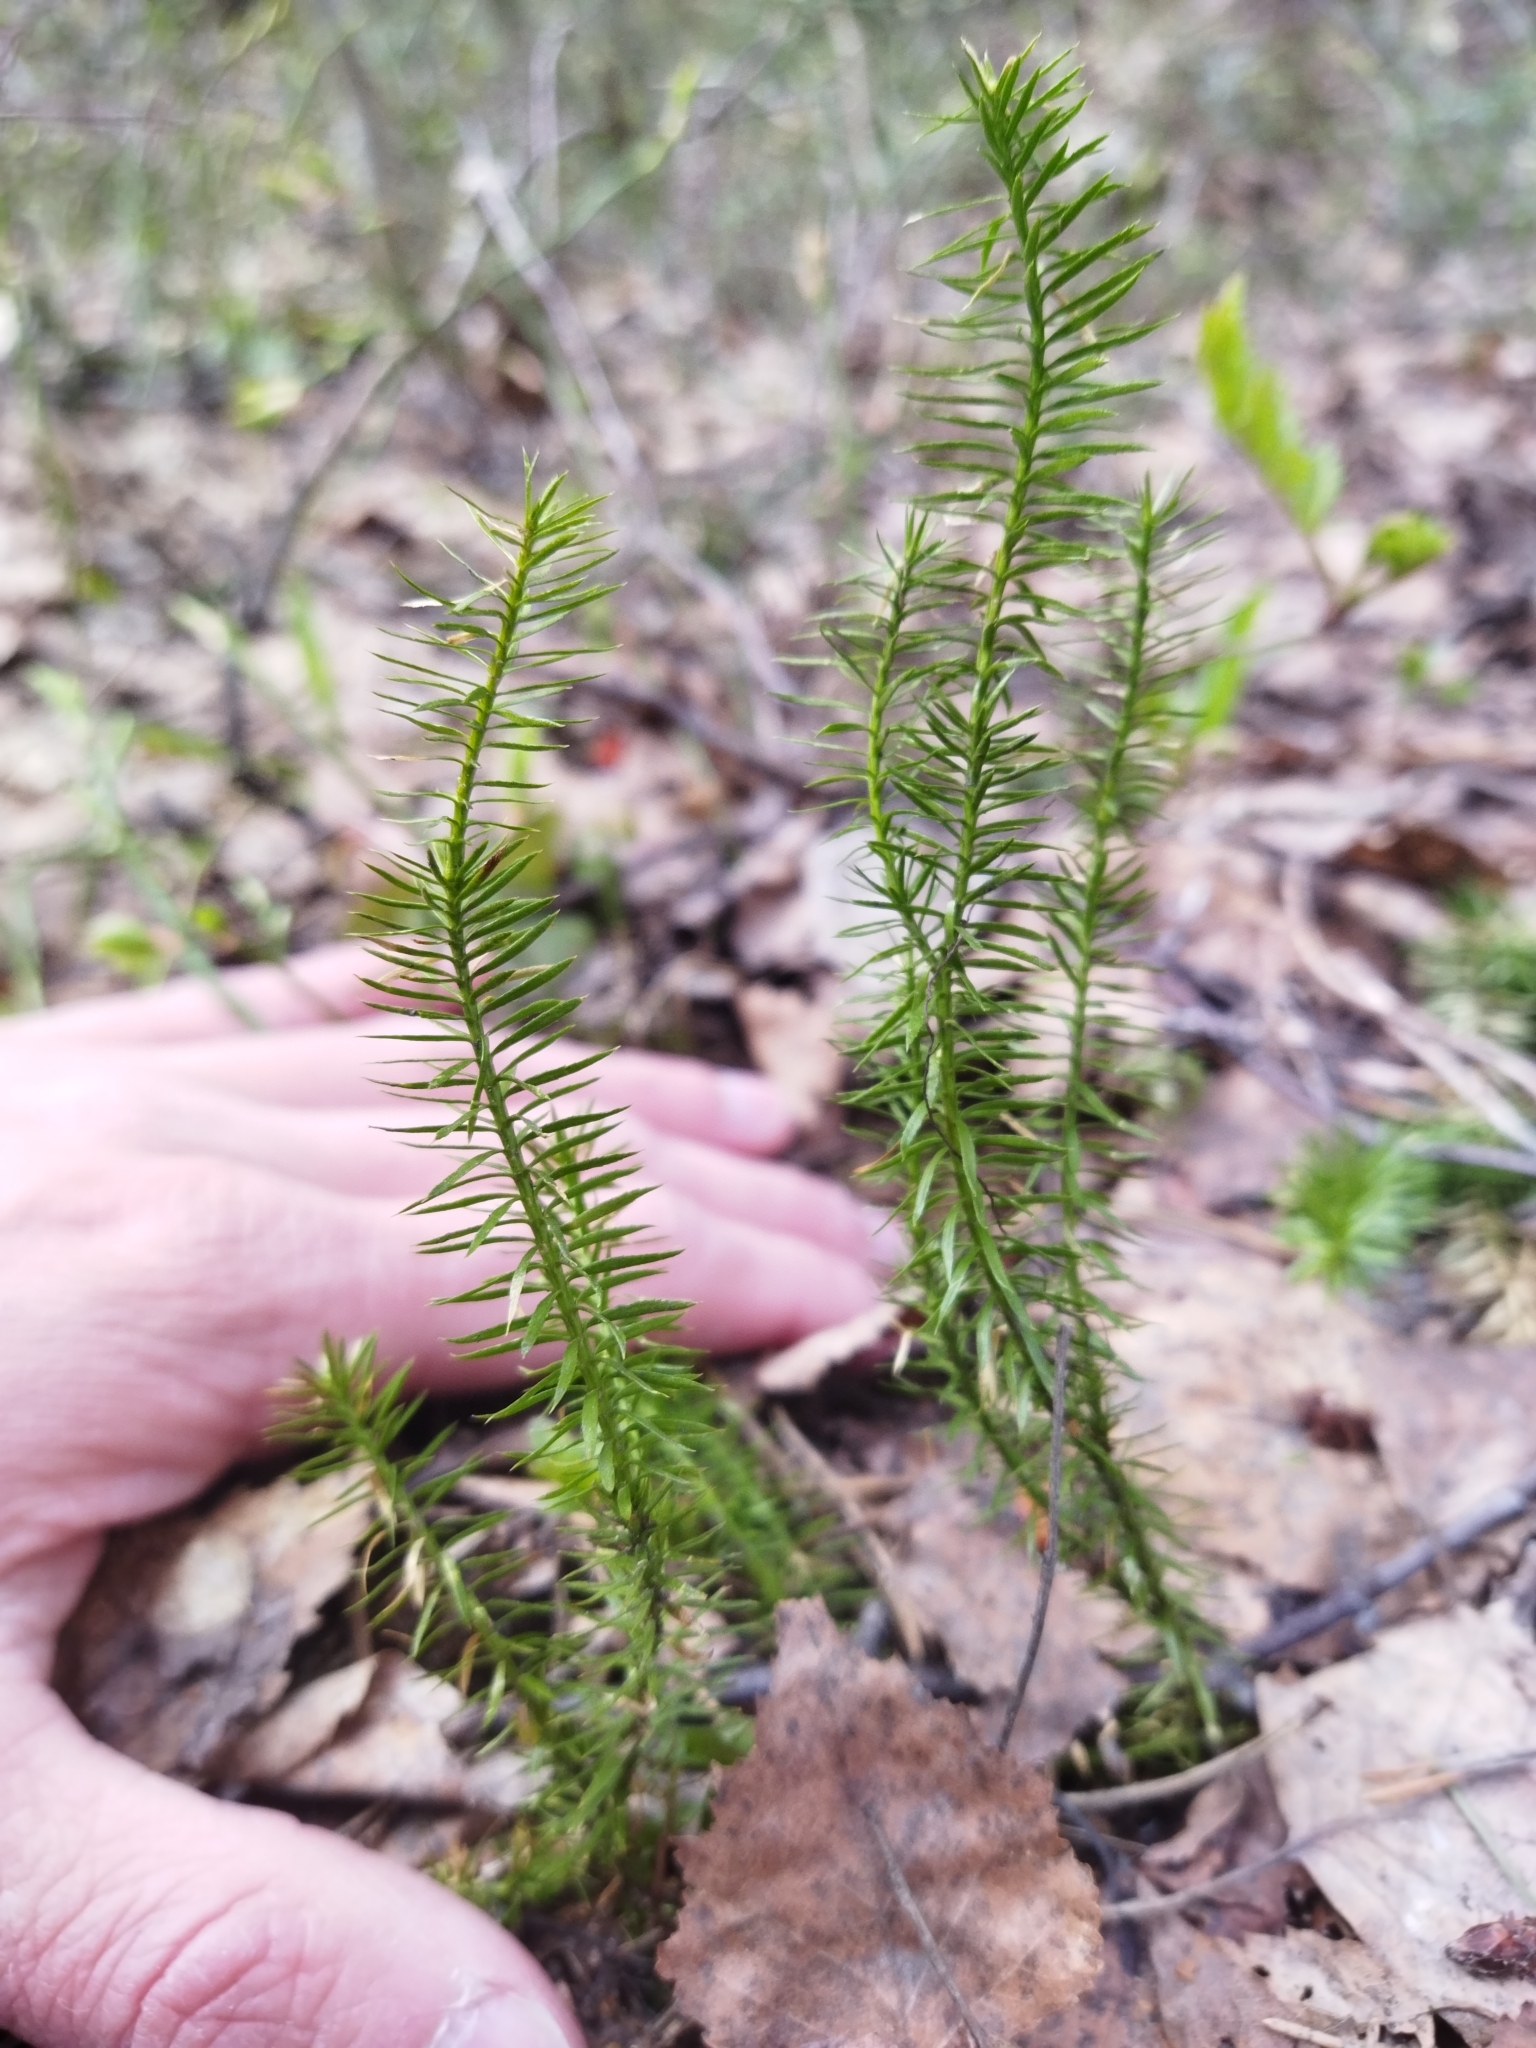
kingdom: Plantae
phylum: Tracheophyta
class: Lycopodiopsida
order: Lycopodiales
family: Lycopodiaceae
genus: Spinulum
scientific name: Spinulum annotinum
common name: Interrupted club-moss
